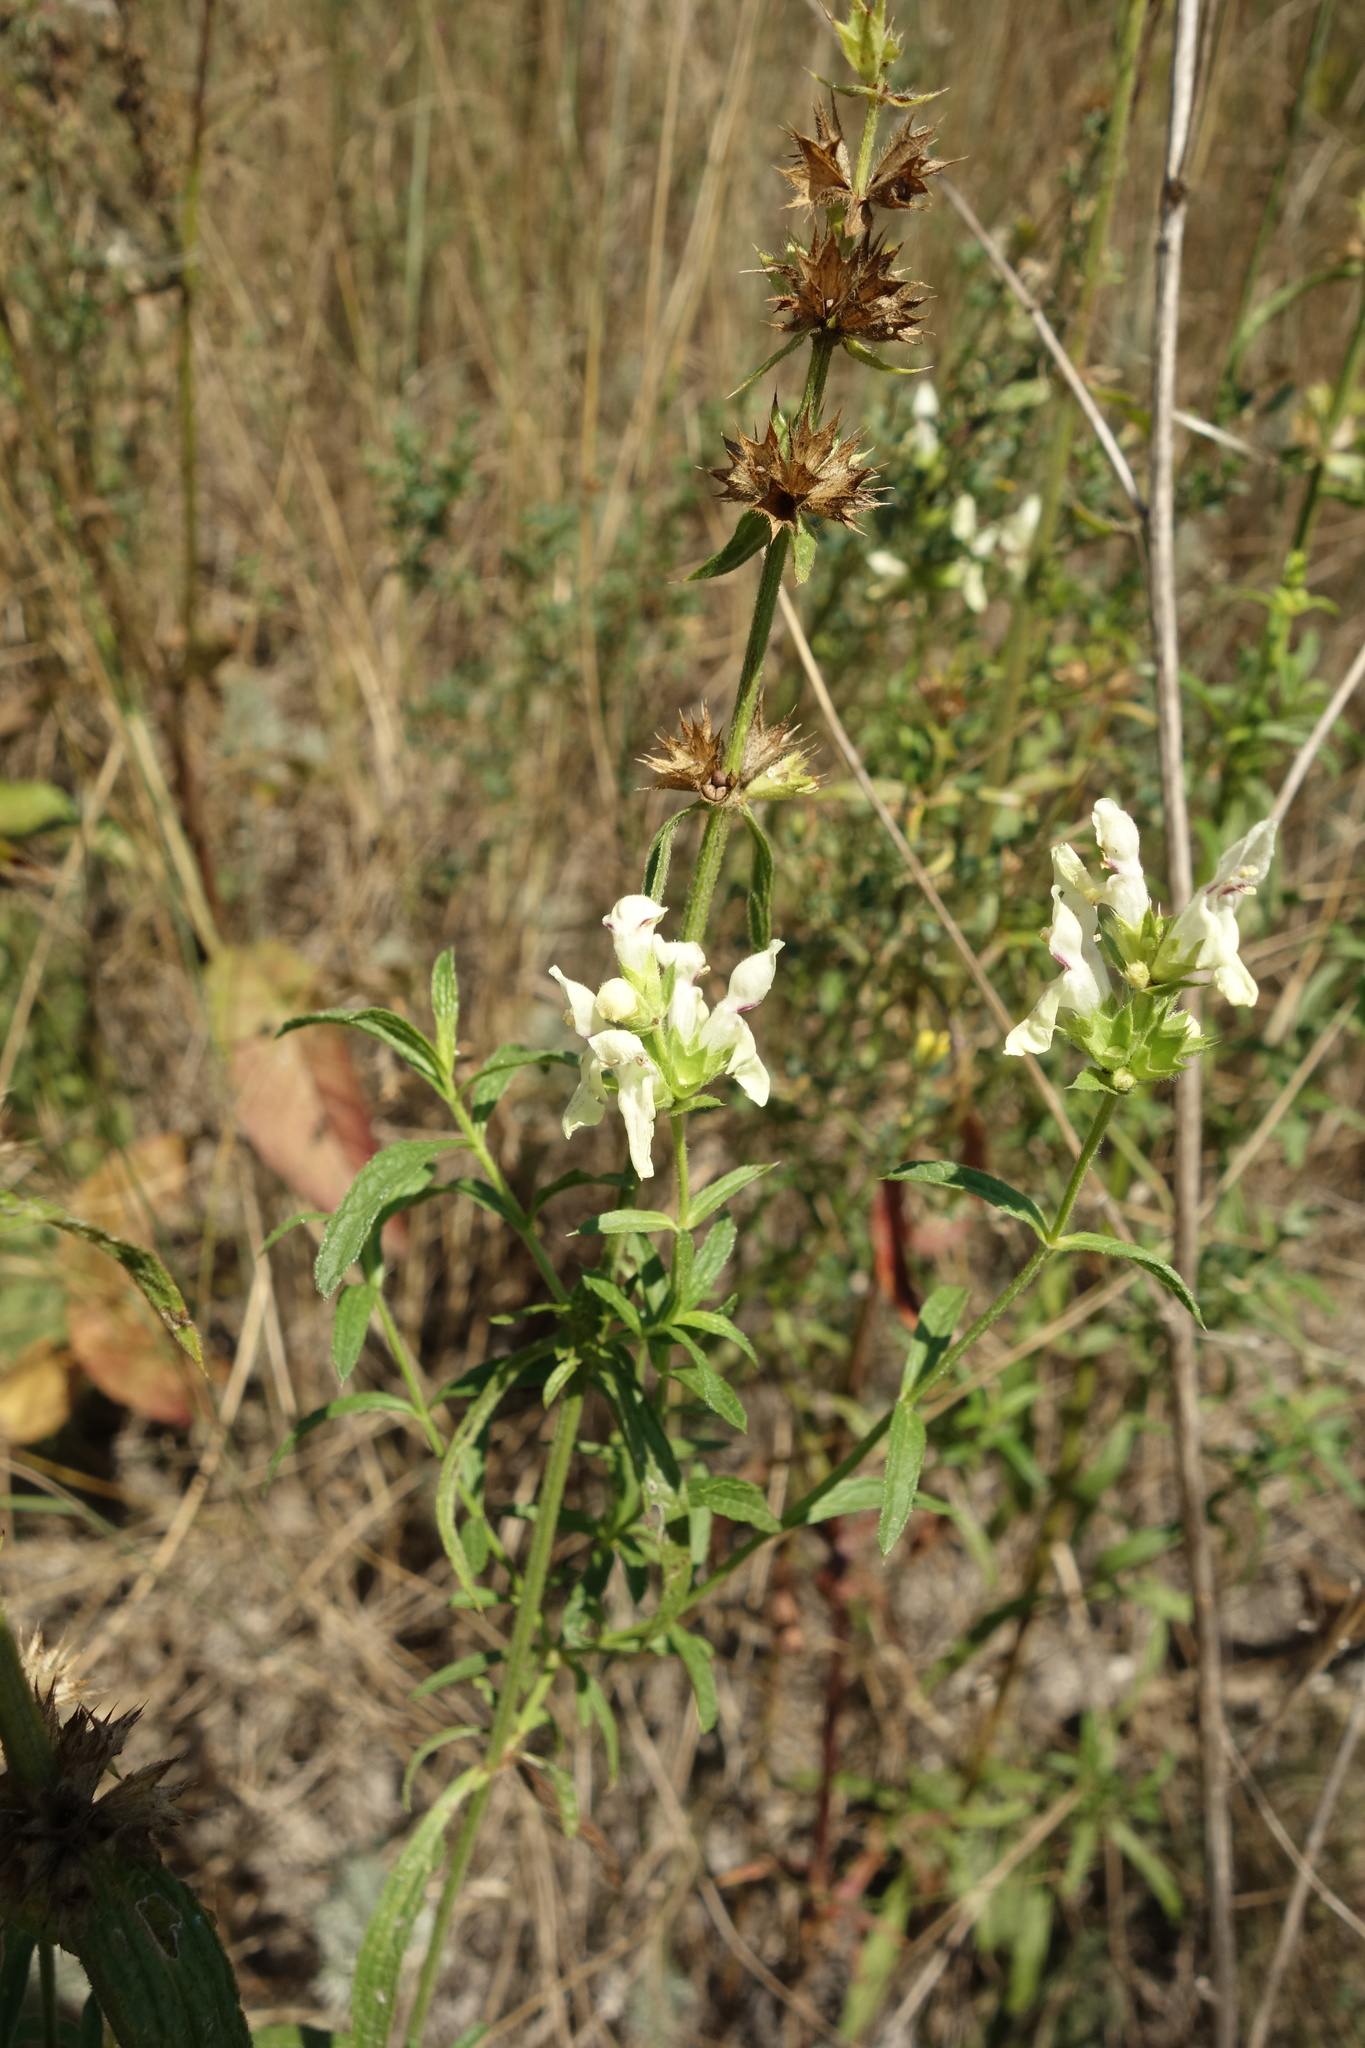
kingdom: Plantae
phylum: Tracheophyta
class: Magnoliopsida
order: Lamiales
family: Lamiaceae
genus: Stachys
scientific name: Stachys recta
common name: Perennial yellow-woundwort
